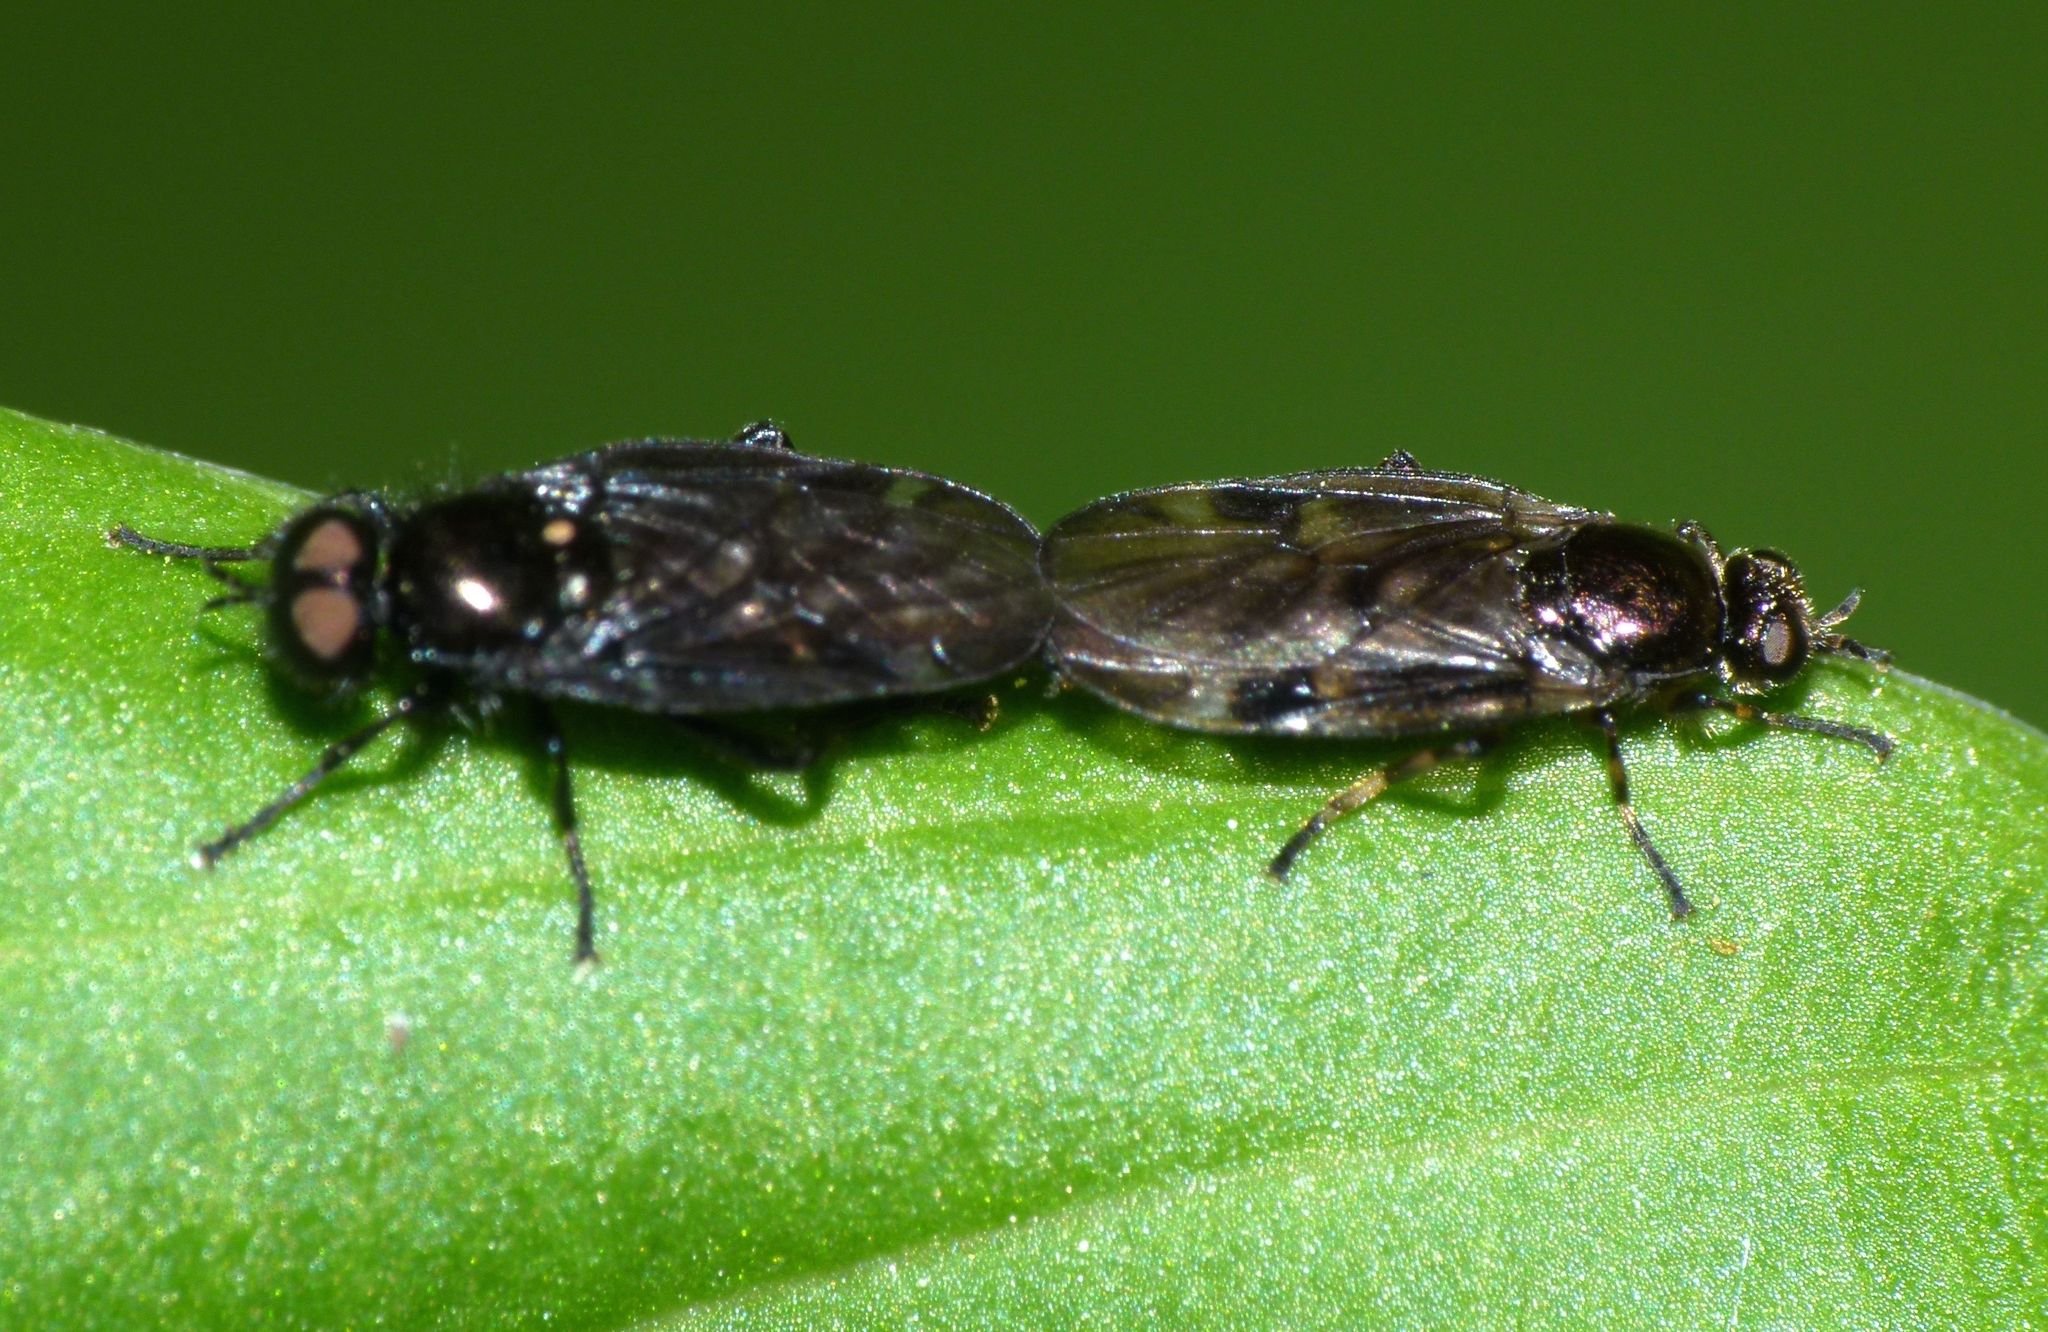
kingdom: Animalia
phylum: Arthropoda
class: Insecta
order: Diptera
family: Stratiomyidae
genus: Berisina
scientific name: Berisina maculipennis
